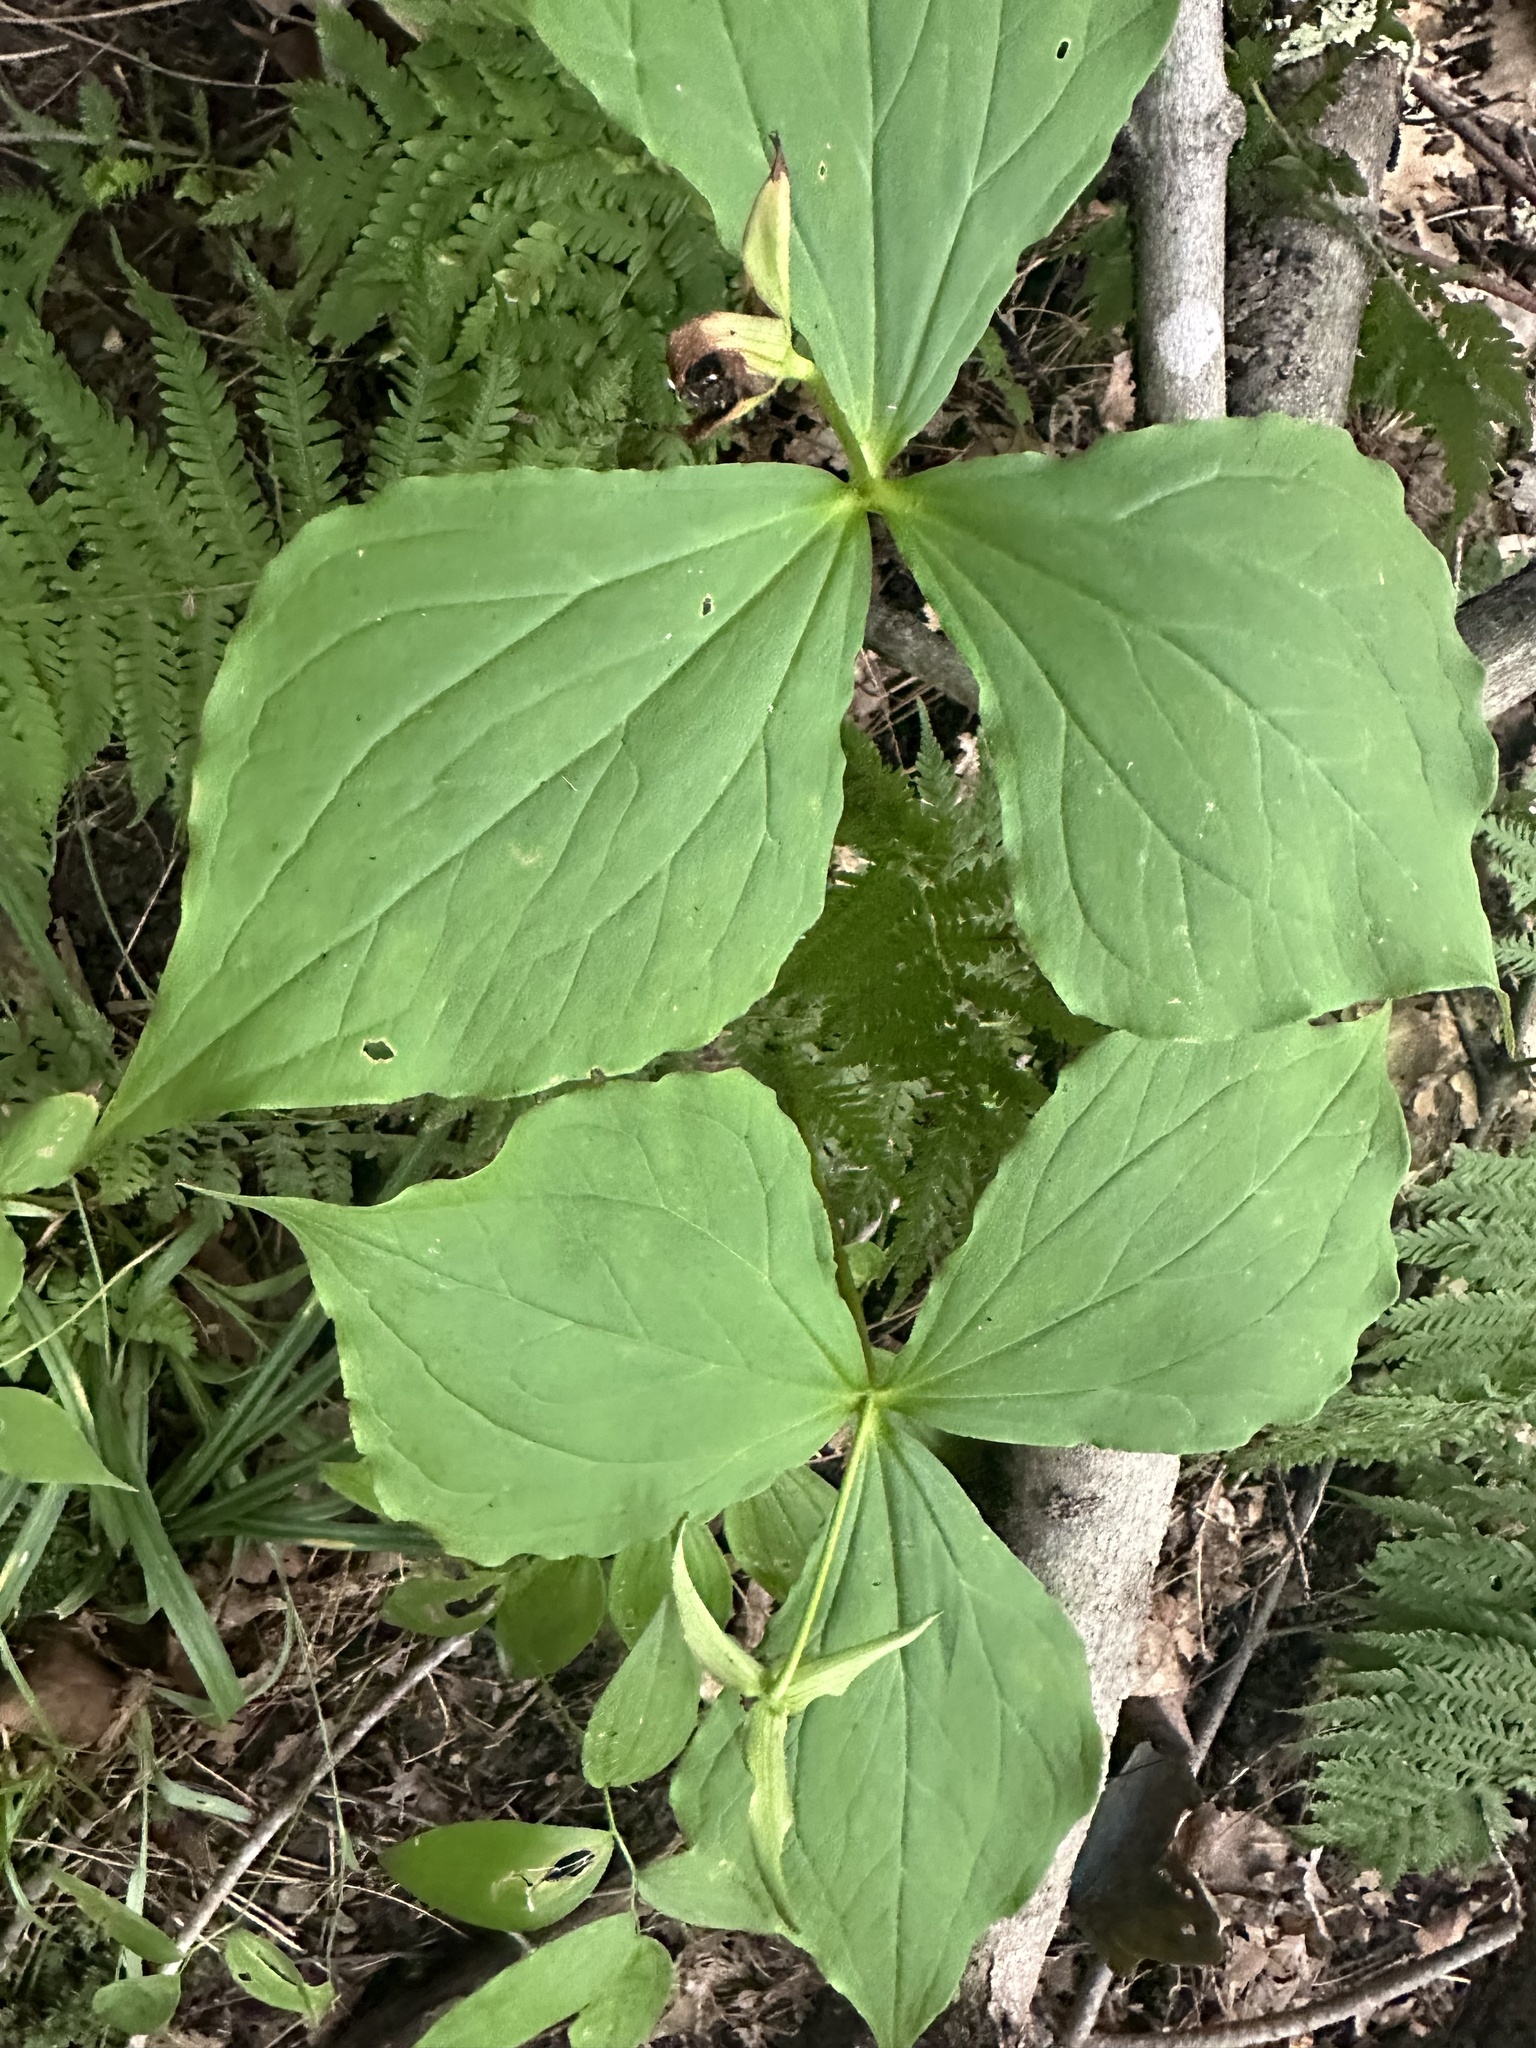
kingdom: Plantae
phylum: Tracheophyta
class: Liliopsida
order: Liliales
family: Melanthiaceae
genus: Trillium
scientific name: Trillium erectum
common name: Purple trillium
